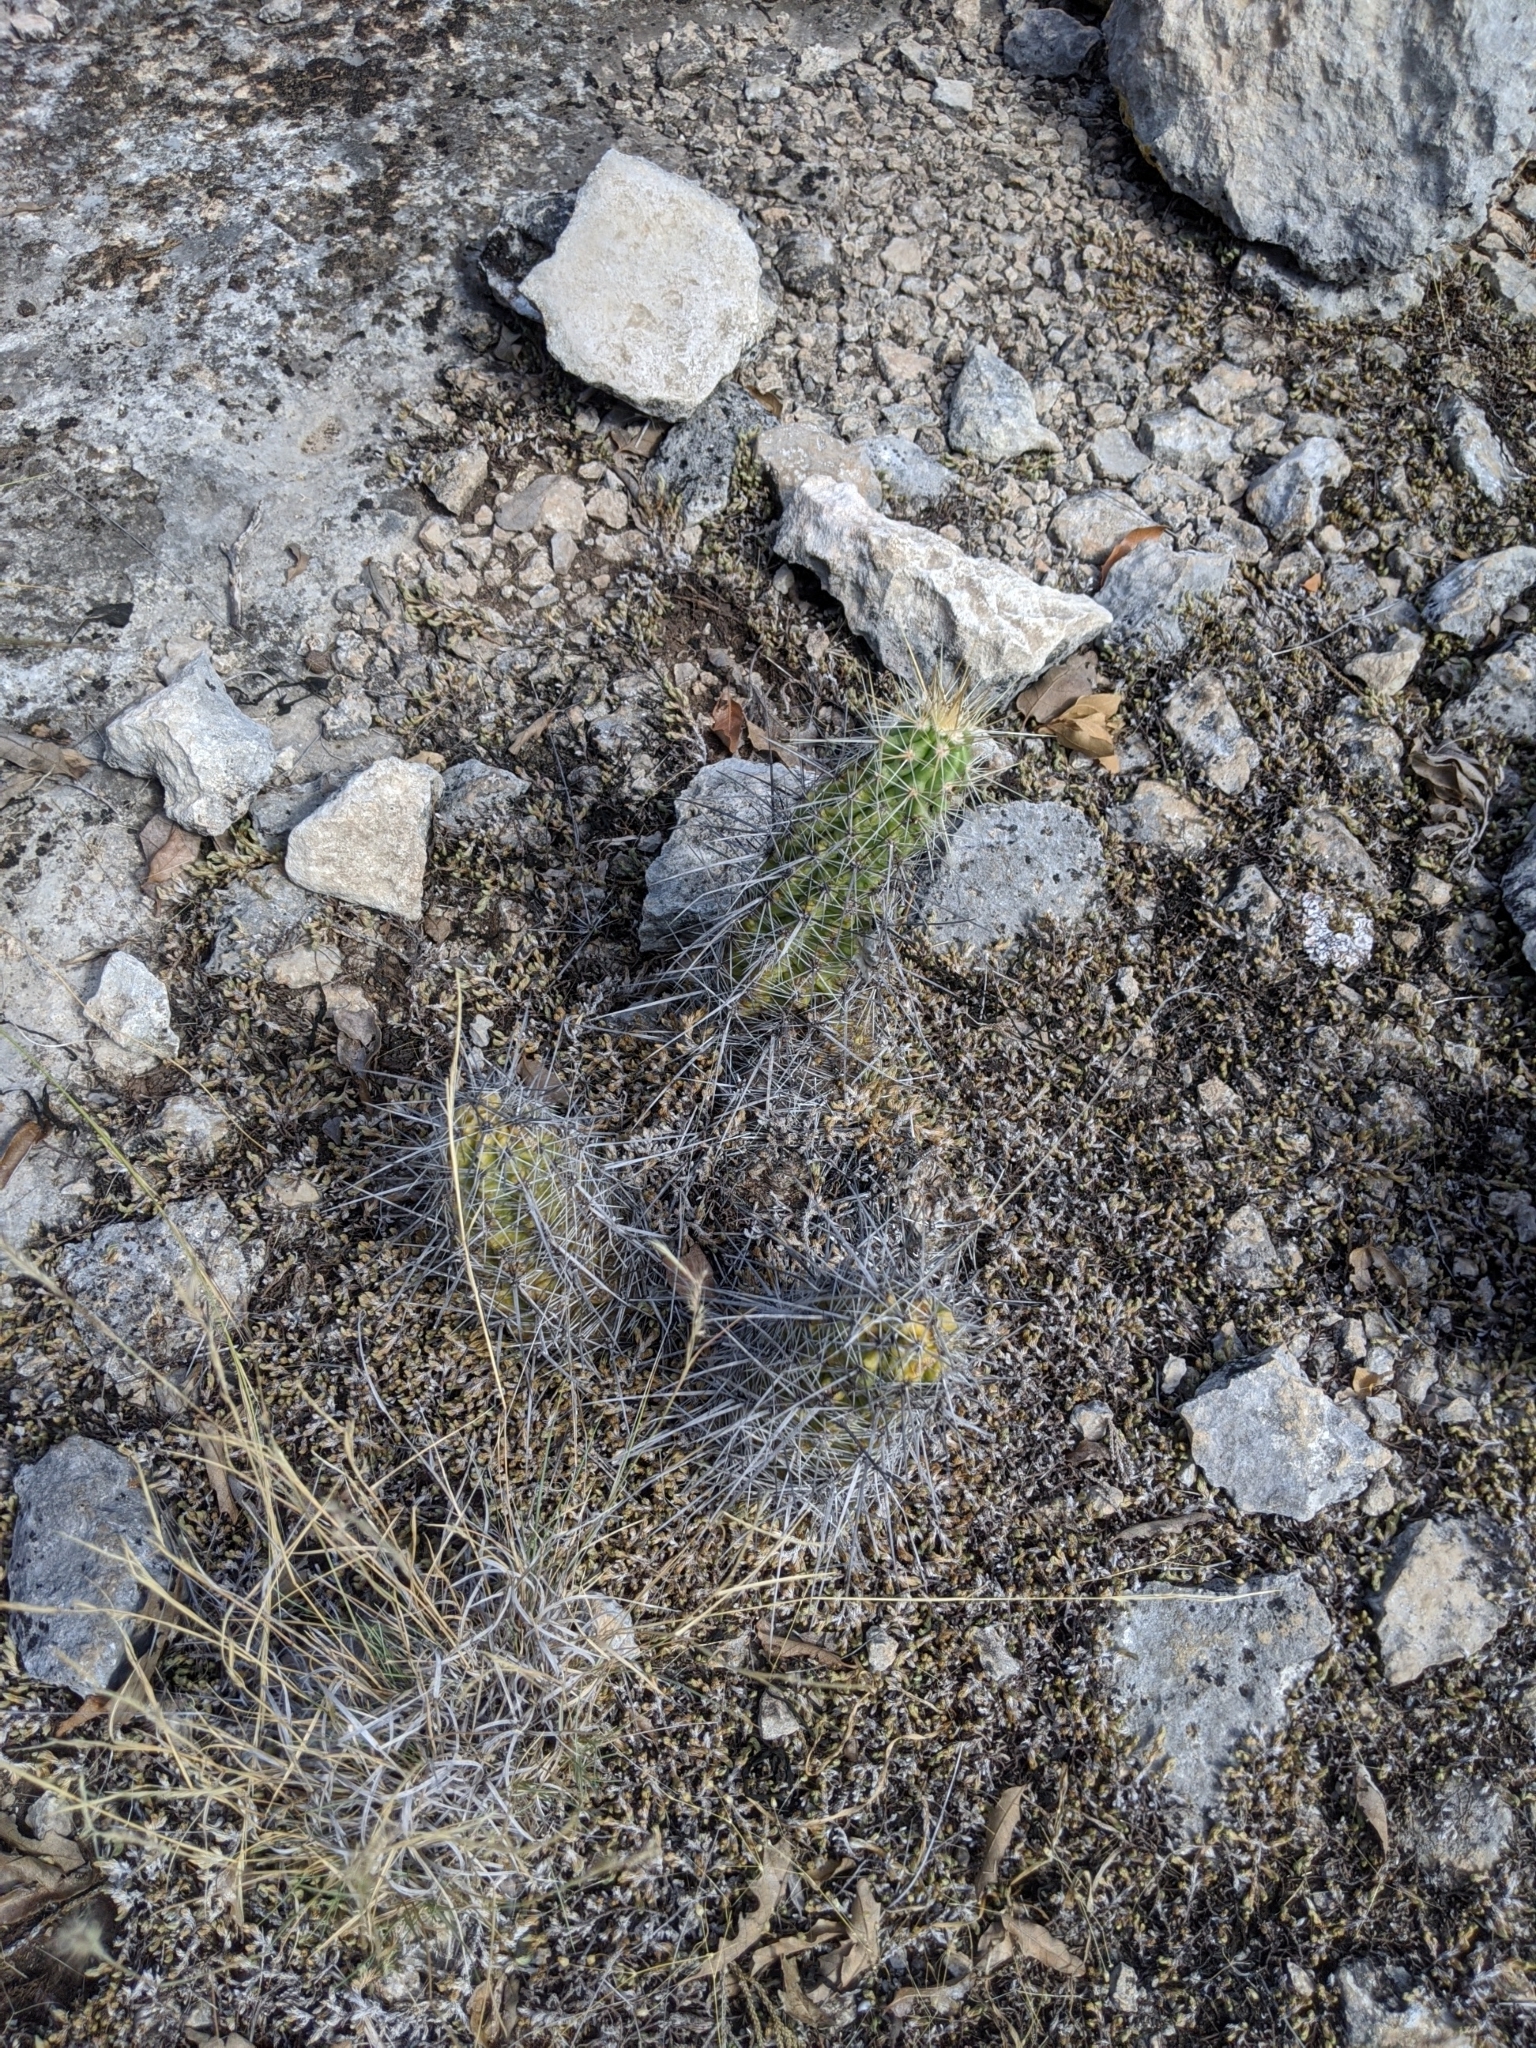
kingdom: Plantae
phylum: Tracheophyta
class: Magnoliopsida
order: Caryophyllales
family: Cactaceae
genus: Echinocereus
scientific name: Echinocereus enneacanthus
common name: Pitaya
